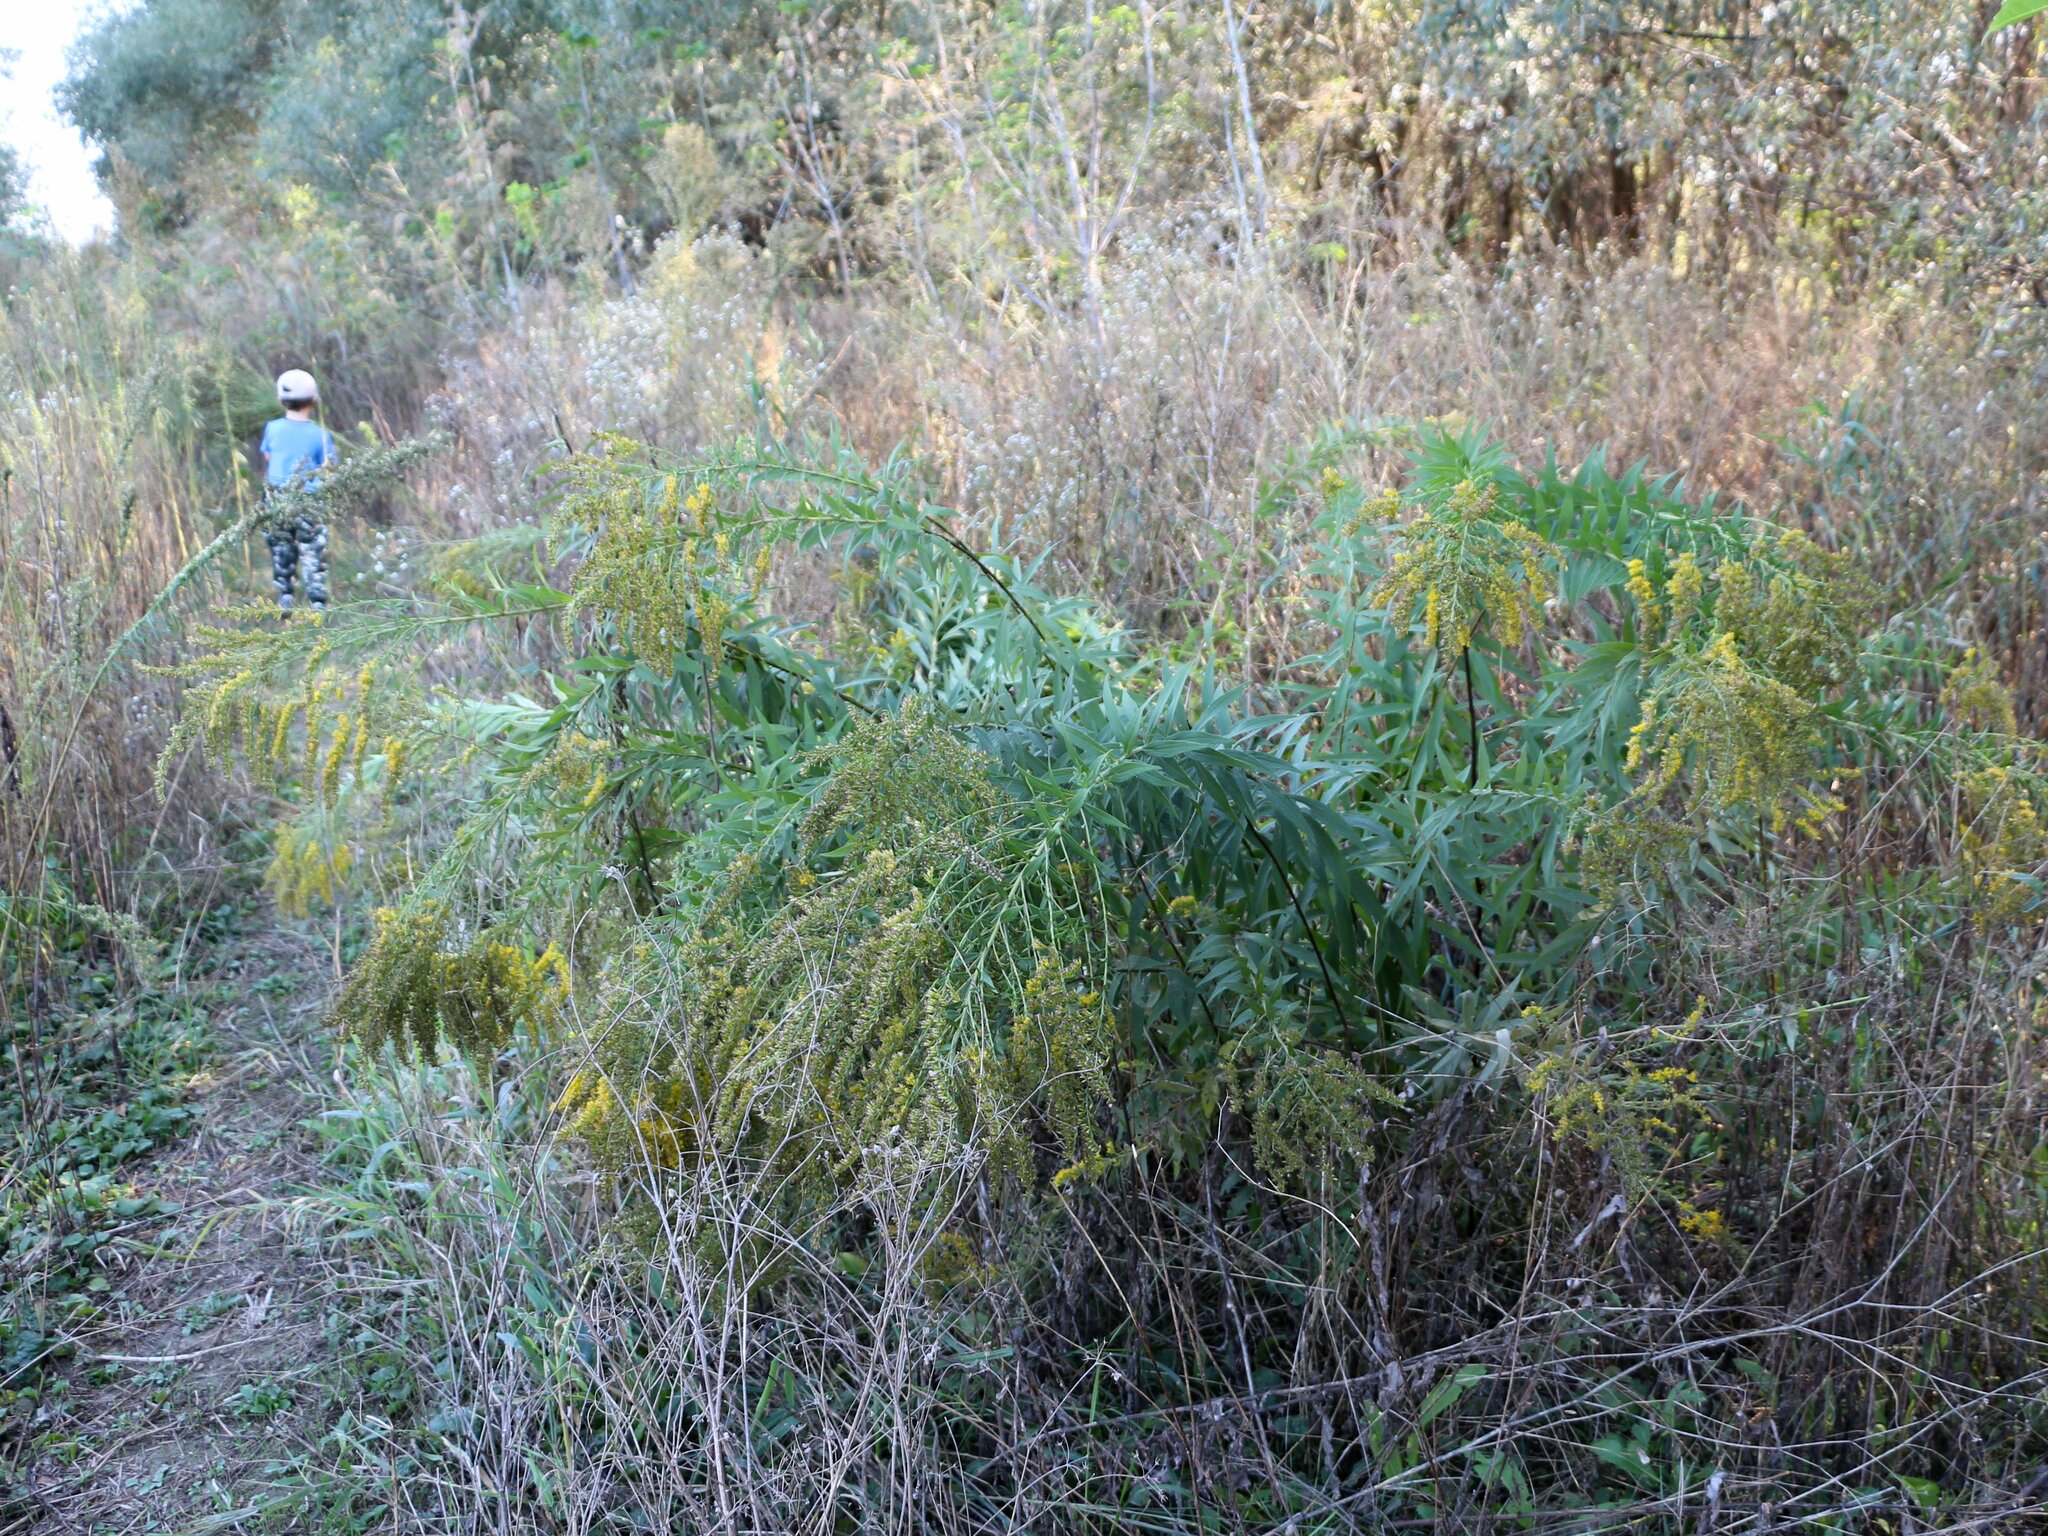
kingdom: Plantae
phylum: Tracheophyta
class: Magnoliopsida
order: Asterales
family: Asteraceae
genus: Solidago
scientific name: Solidago canadensis
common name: Canada goldenrod
